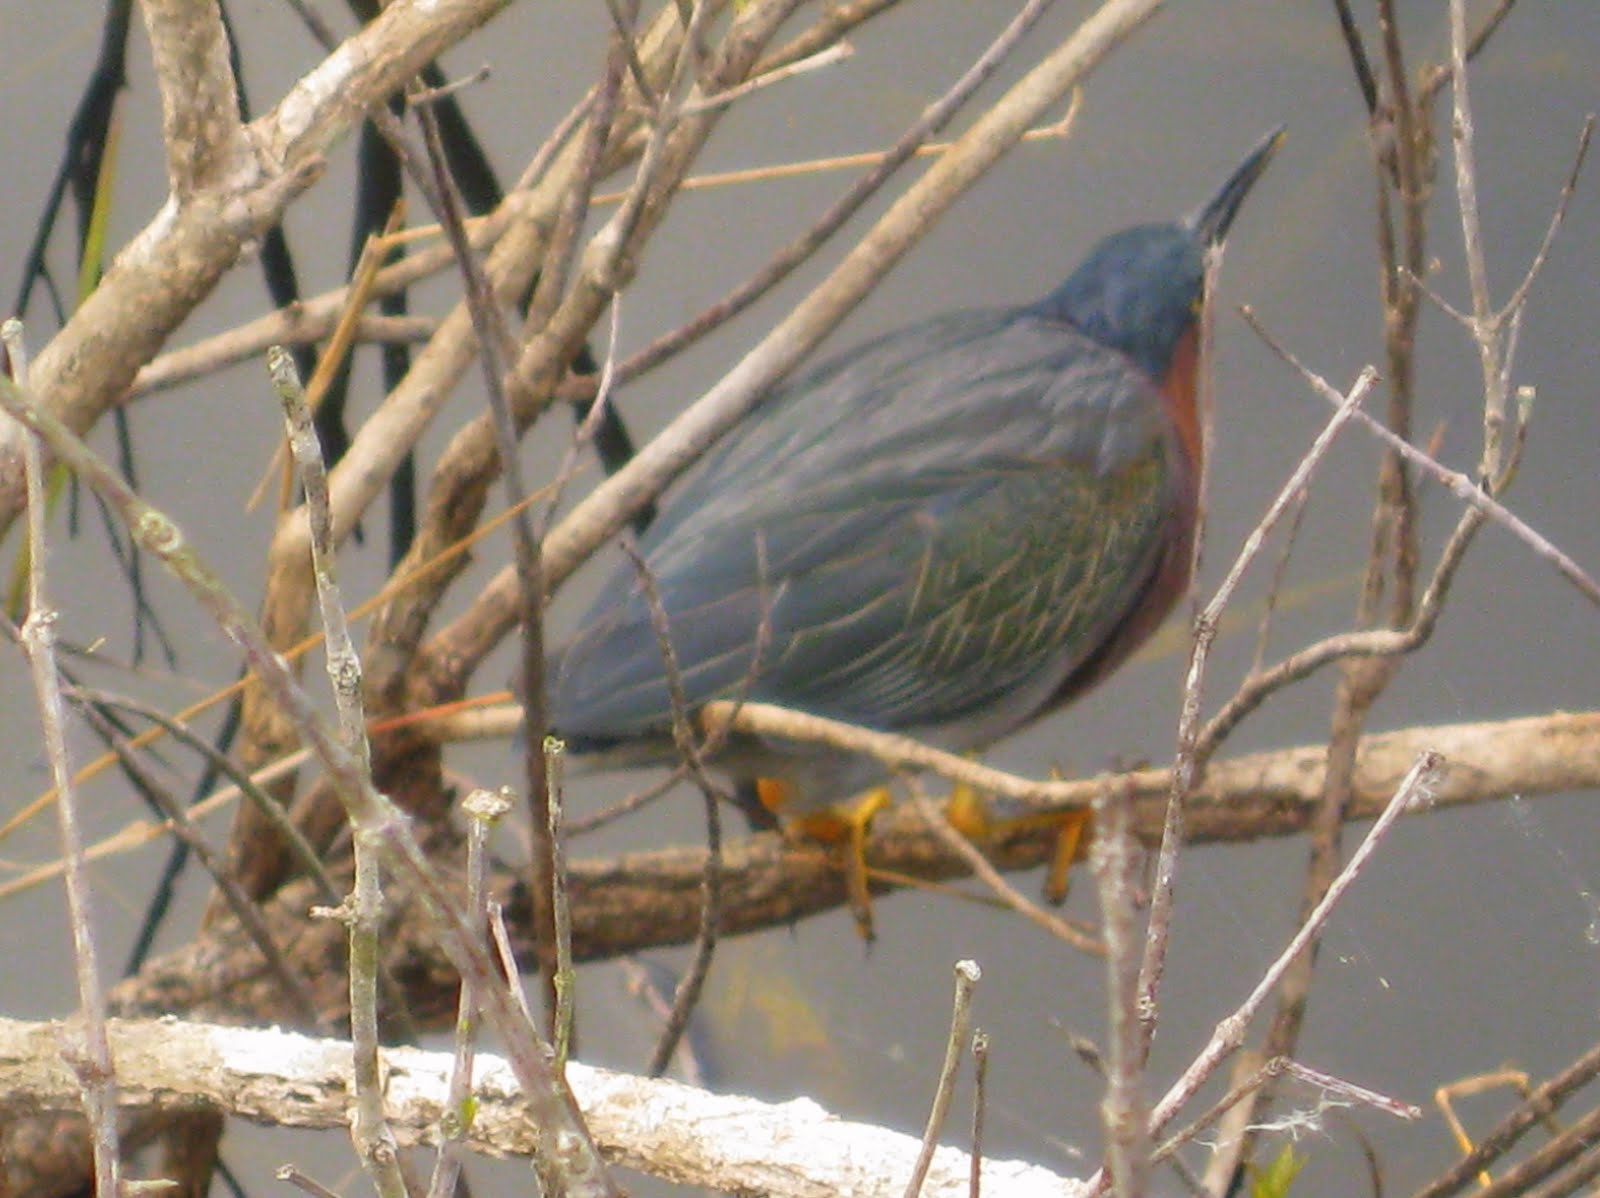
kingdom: Animalia
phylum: Chordata
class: Aves
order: Pelecaniformes
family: Ardeidae
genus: Butorides
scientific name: Butorides virescens
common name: Green heron
